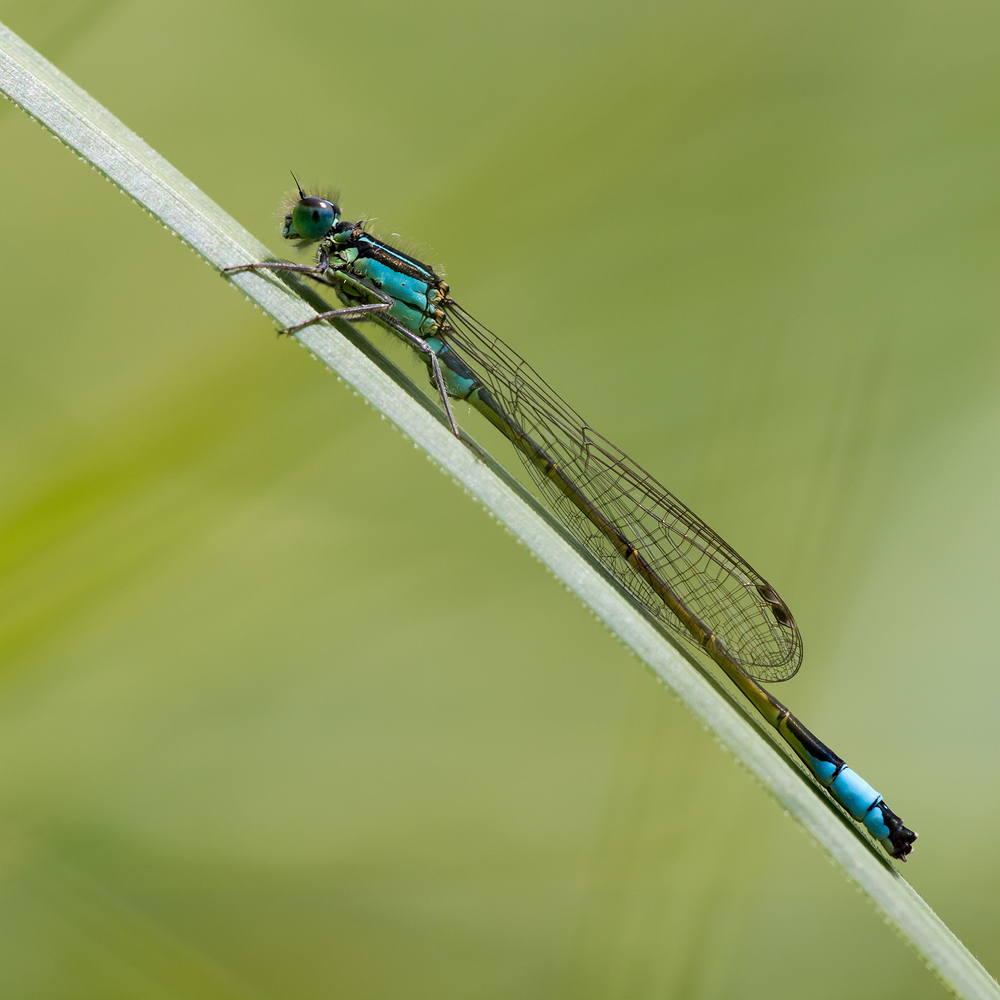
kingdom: Animalia
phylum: Arthropoda
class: Insecta
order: Odonata
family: Coenagrionidae
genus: Ischnura
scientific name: Ischnura elegans
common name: Blue-tailed damselfly
